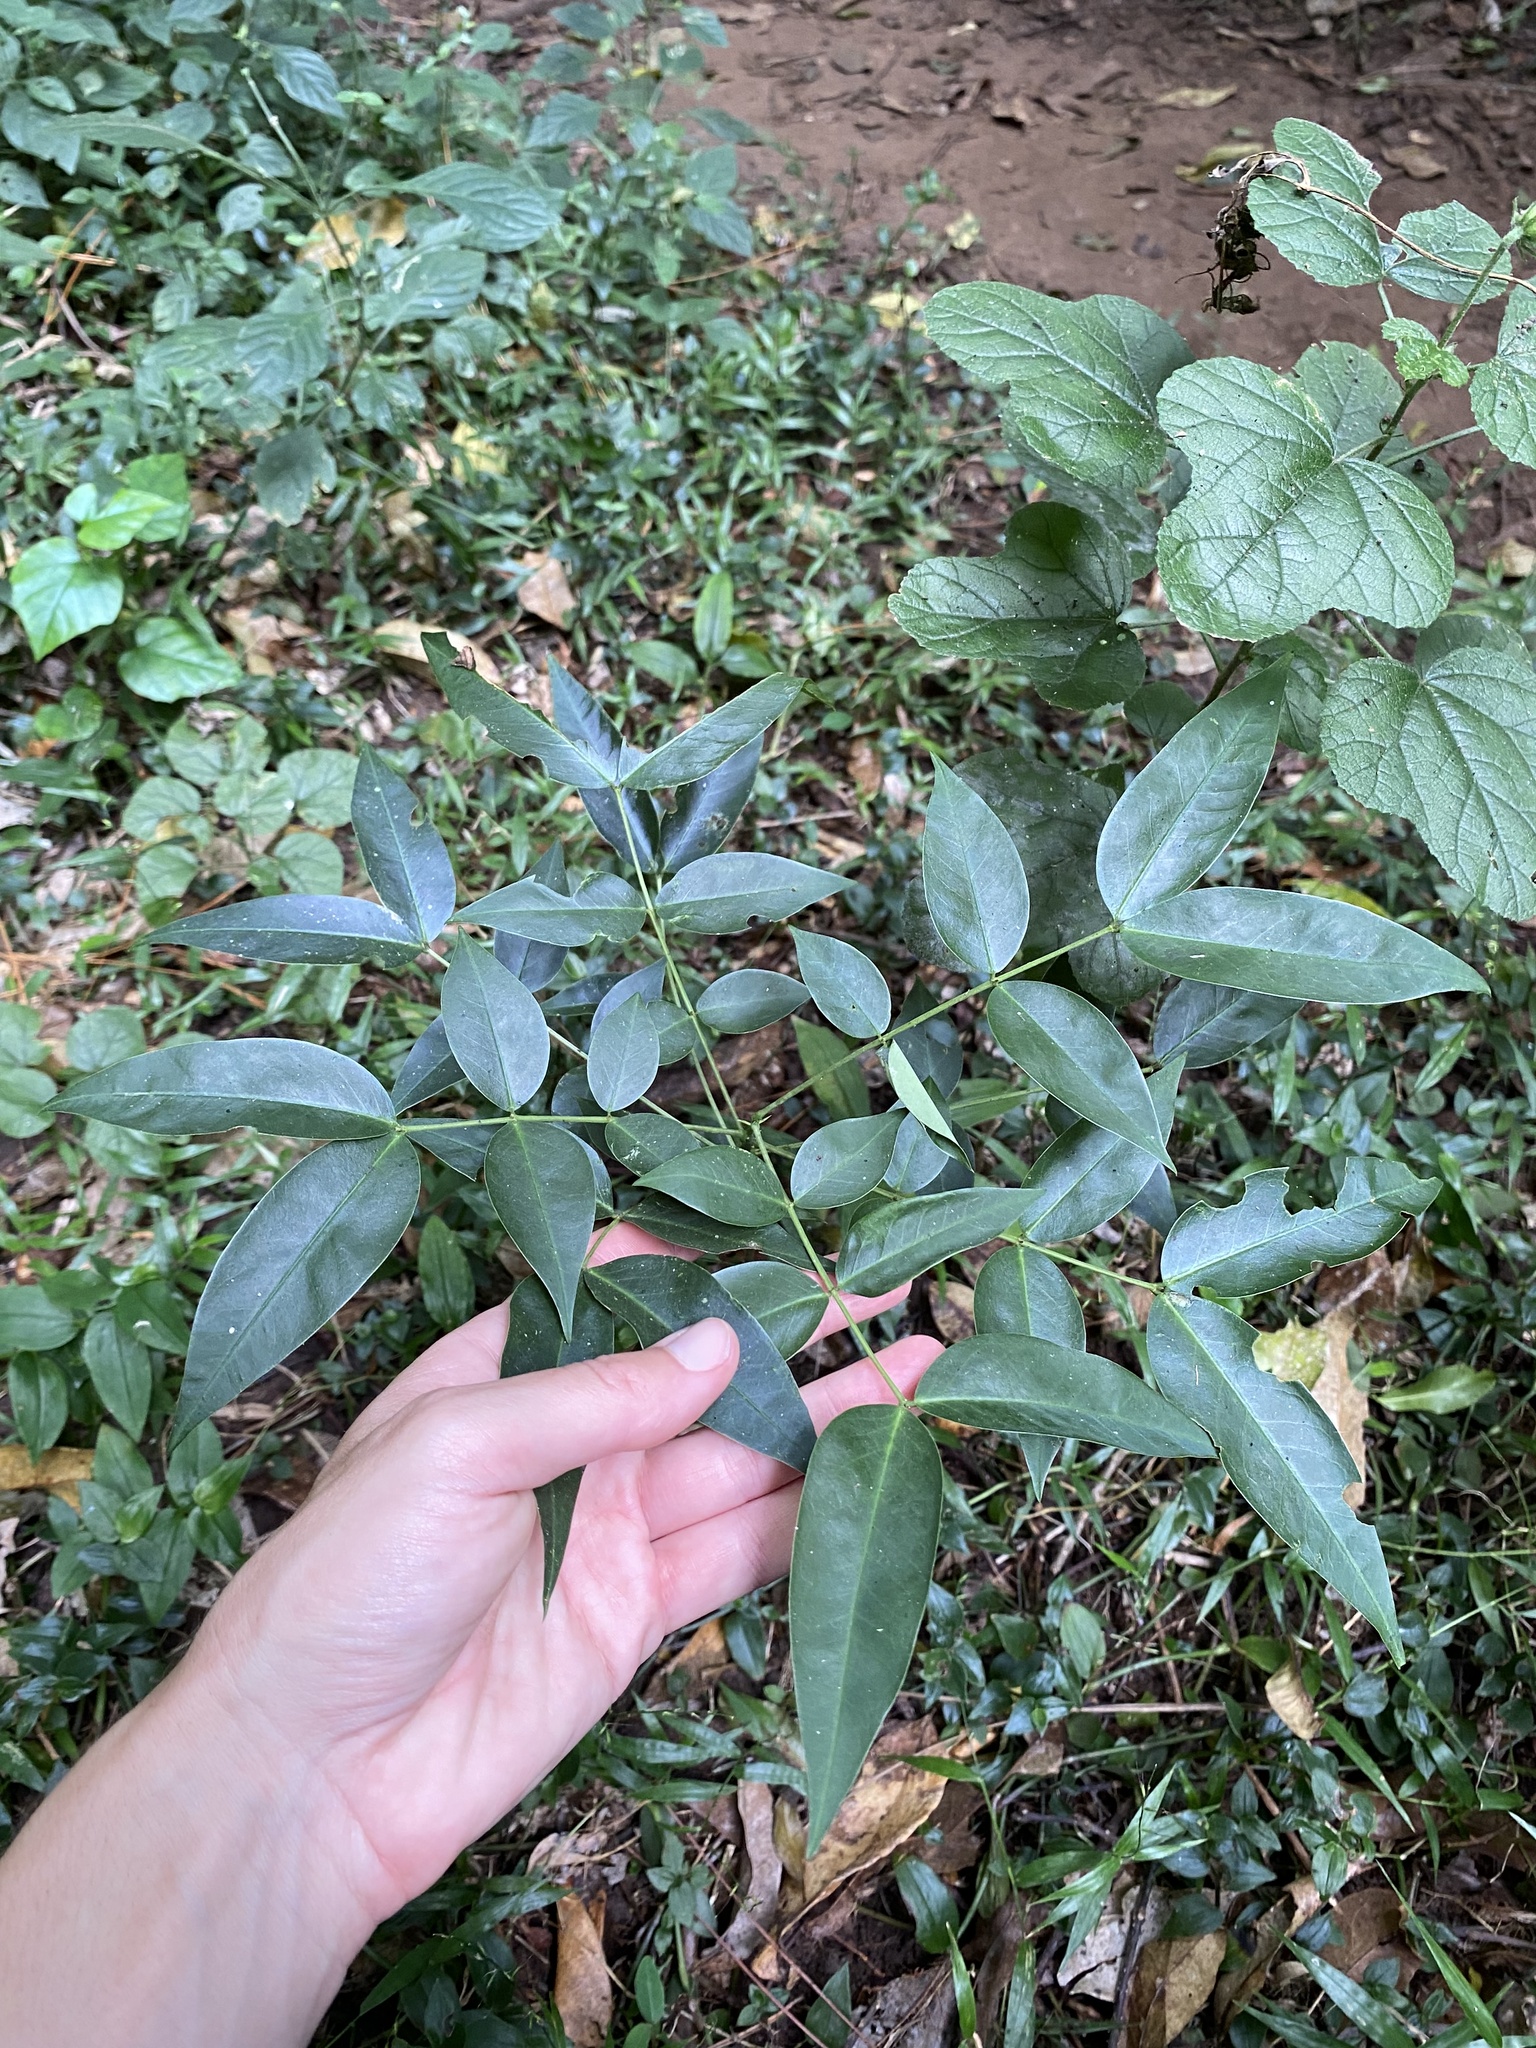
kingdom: Plantae
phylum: Tracheophyta
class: Magnoliopsida
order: Fabales
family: Fabaceae
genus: Senna
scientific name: Senna septemtrionalis
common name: Arsenic bush
